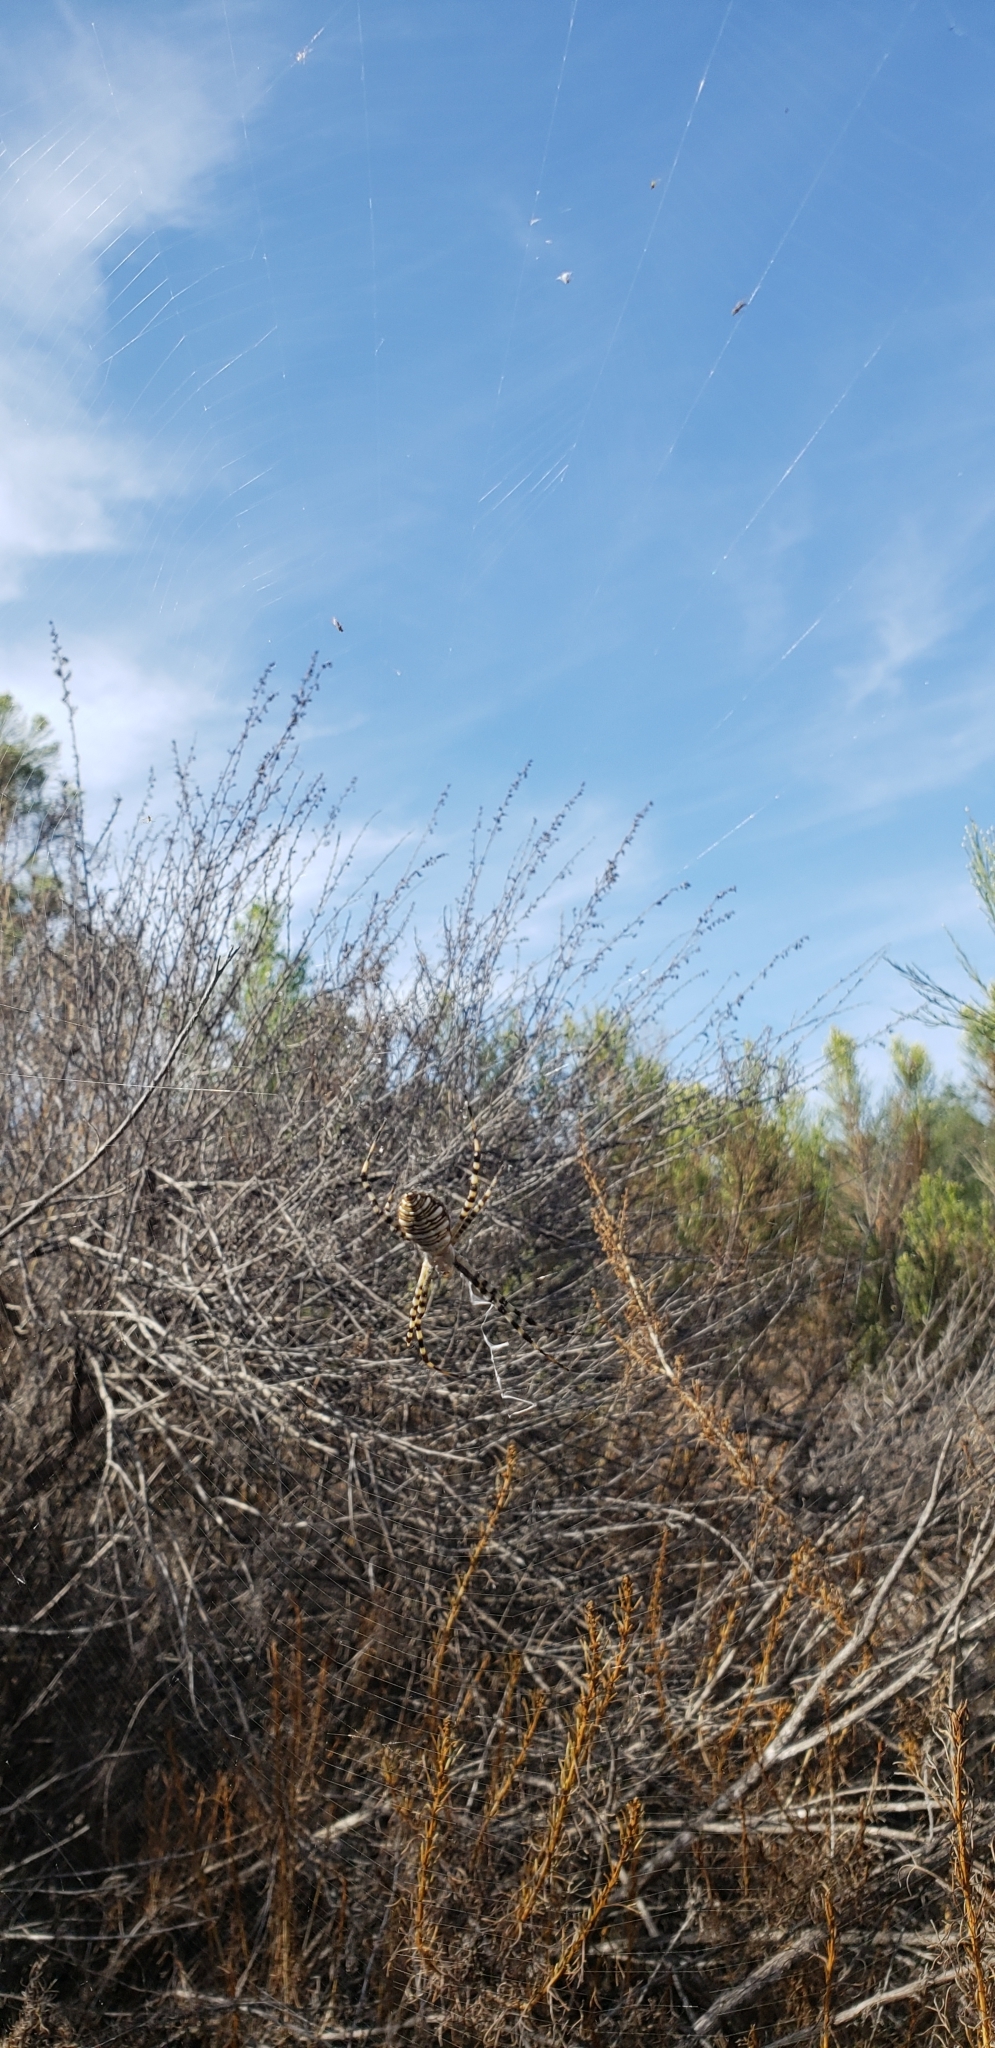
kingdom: Animalia
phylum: Arthropoda
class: Arachnida
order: Araneae
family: Araneidae
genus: Argiope
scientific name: Argiope trifasciata
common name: Banded garden spider
